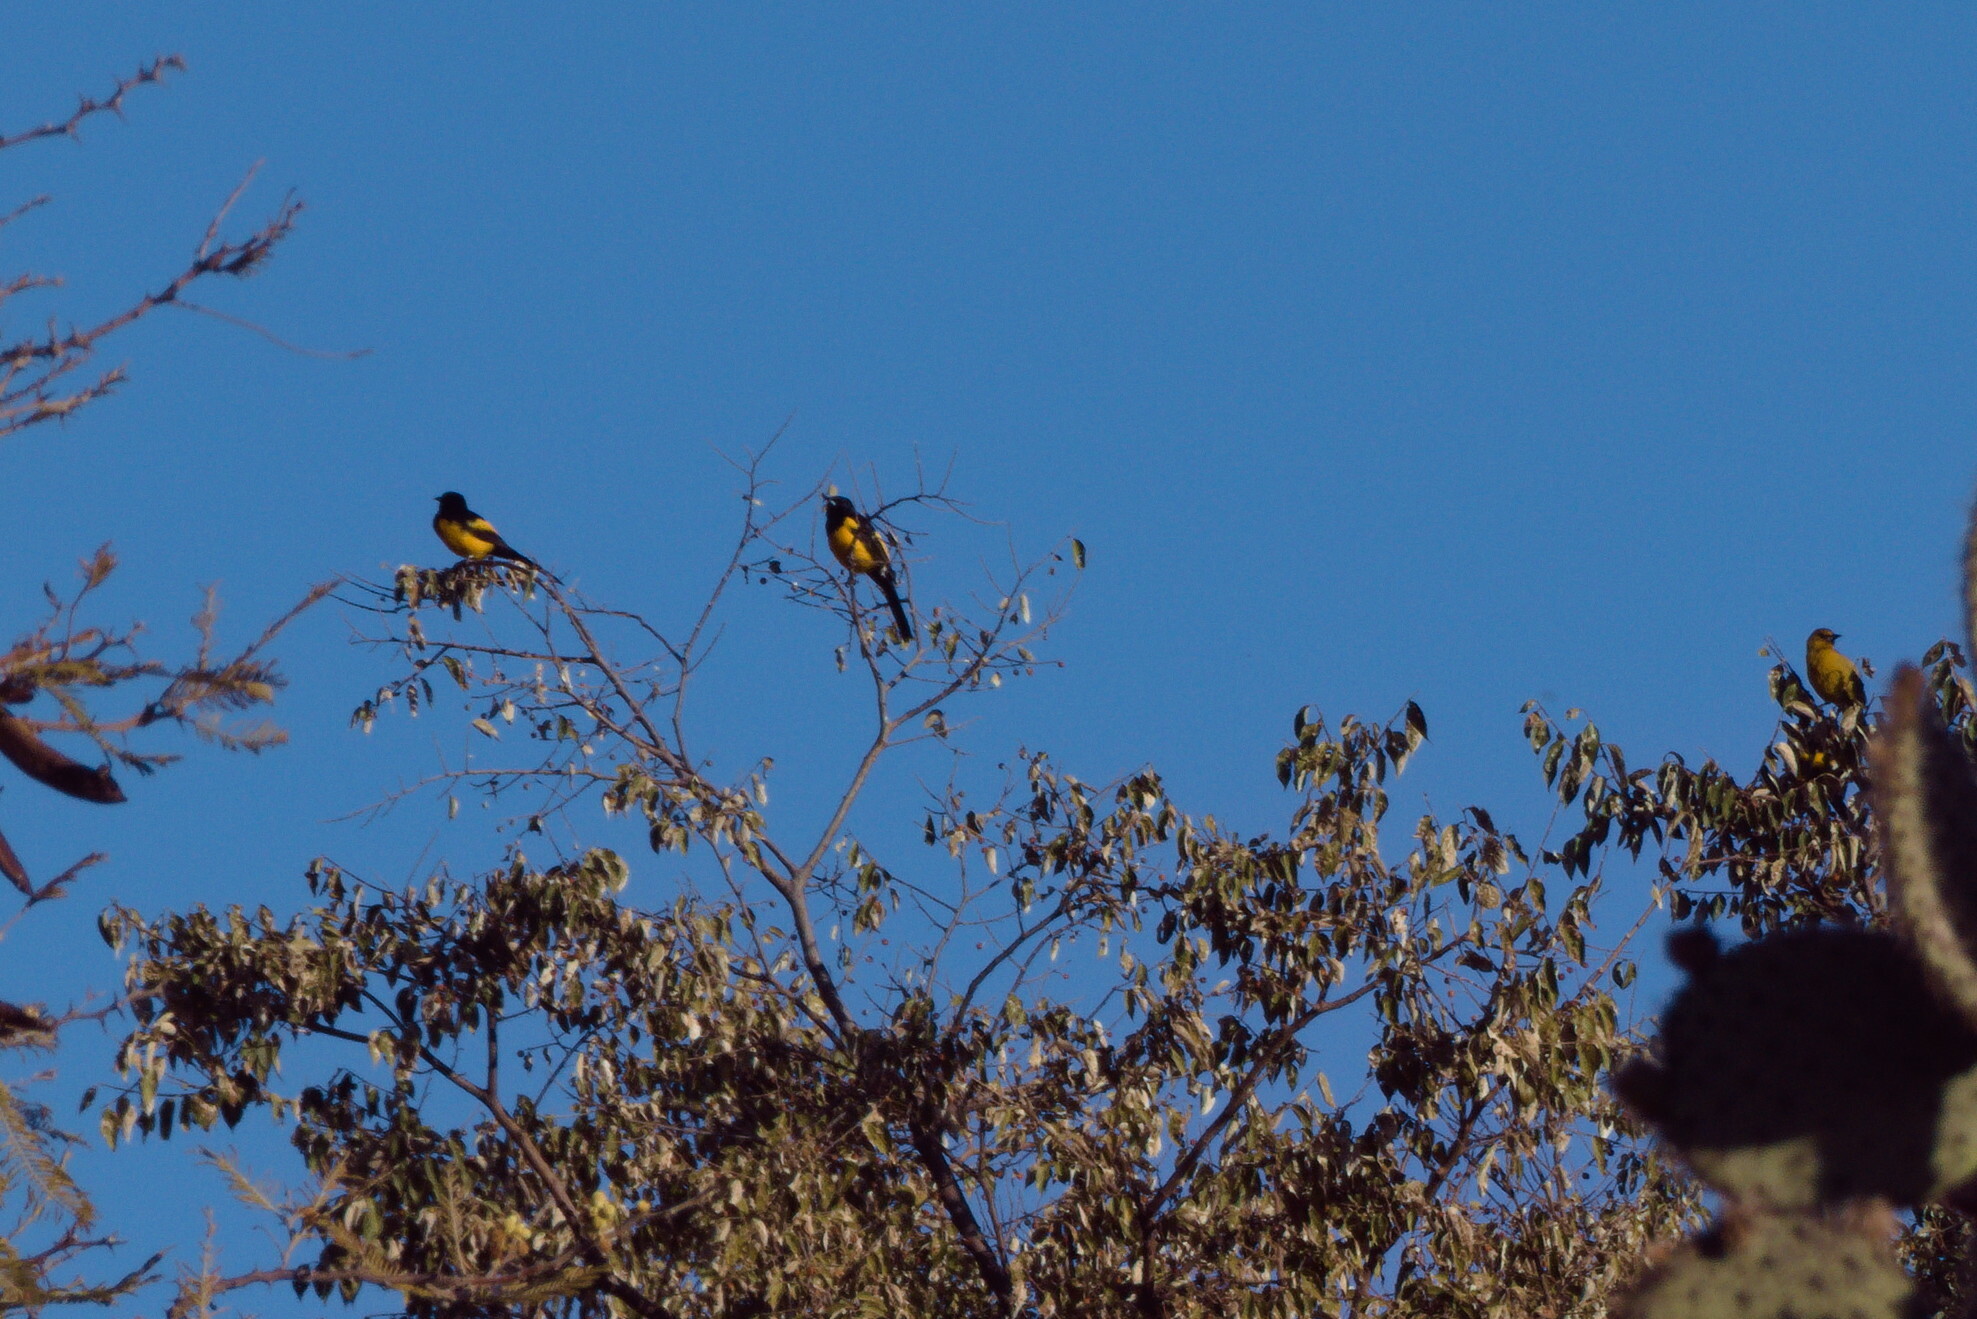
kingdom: Animalia
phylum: Chordata
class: Aves
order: Passeriformes
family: Icteridae
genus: Icterus
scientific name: Icterus wagleri
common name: Black-vented oriole
